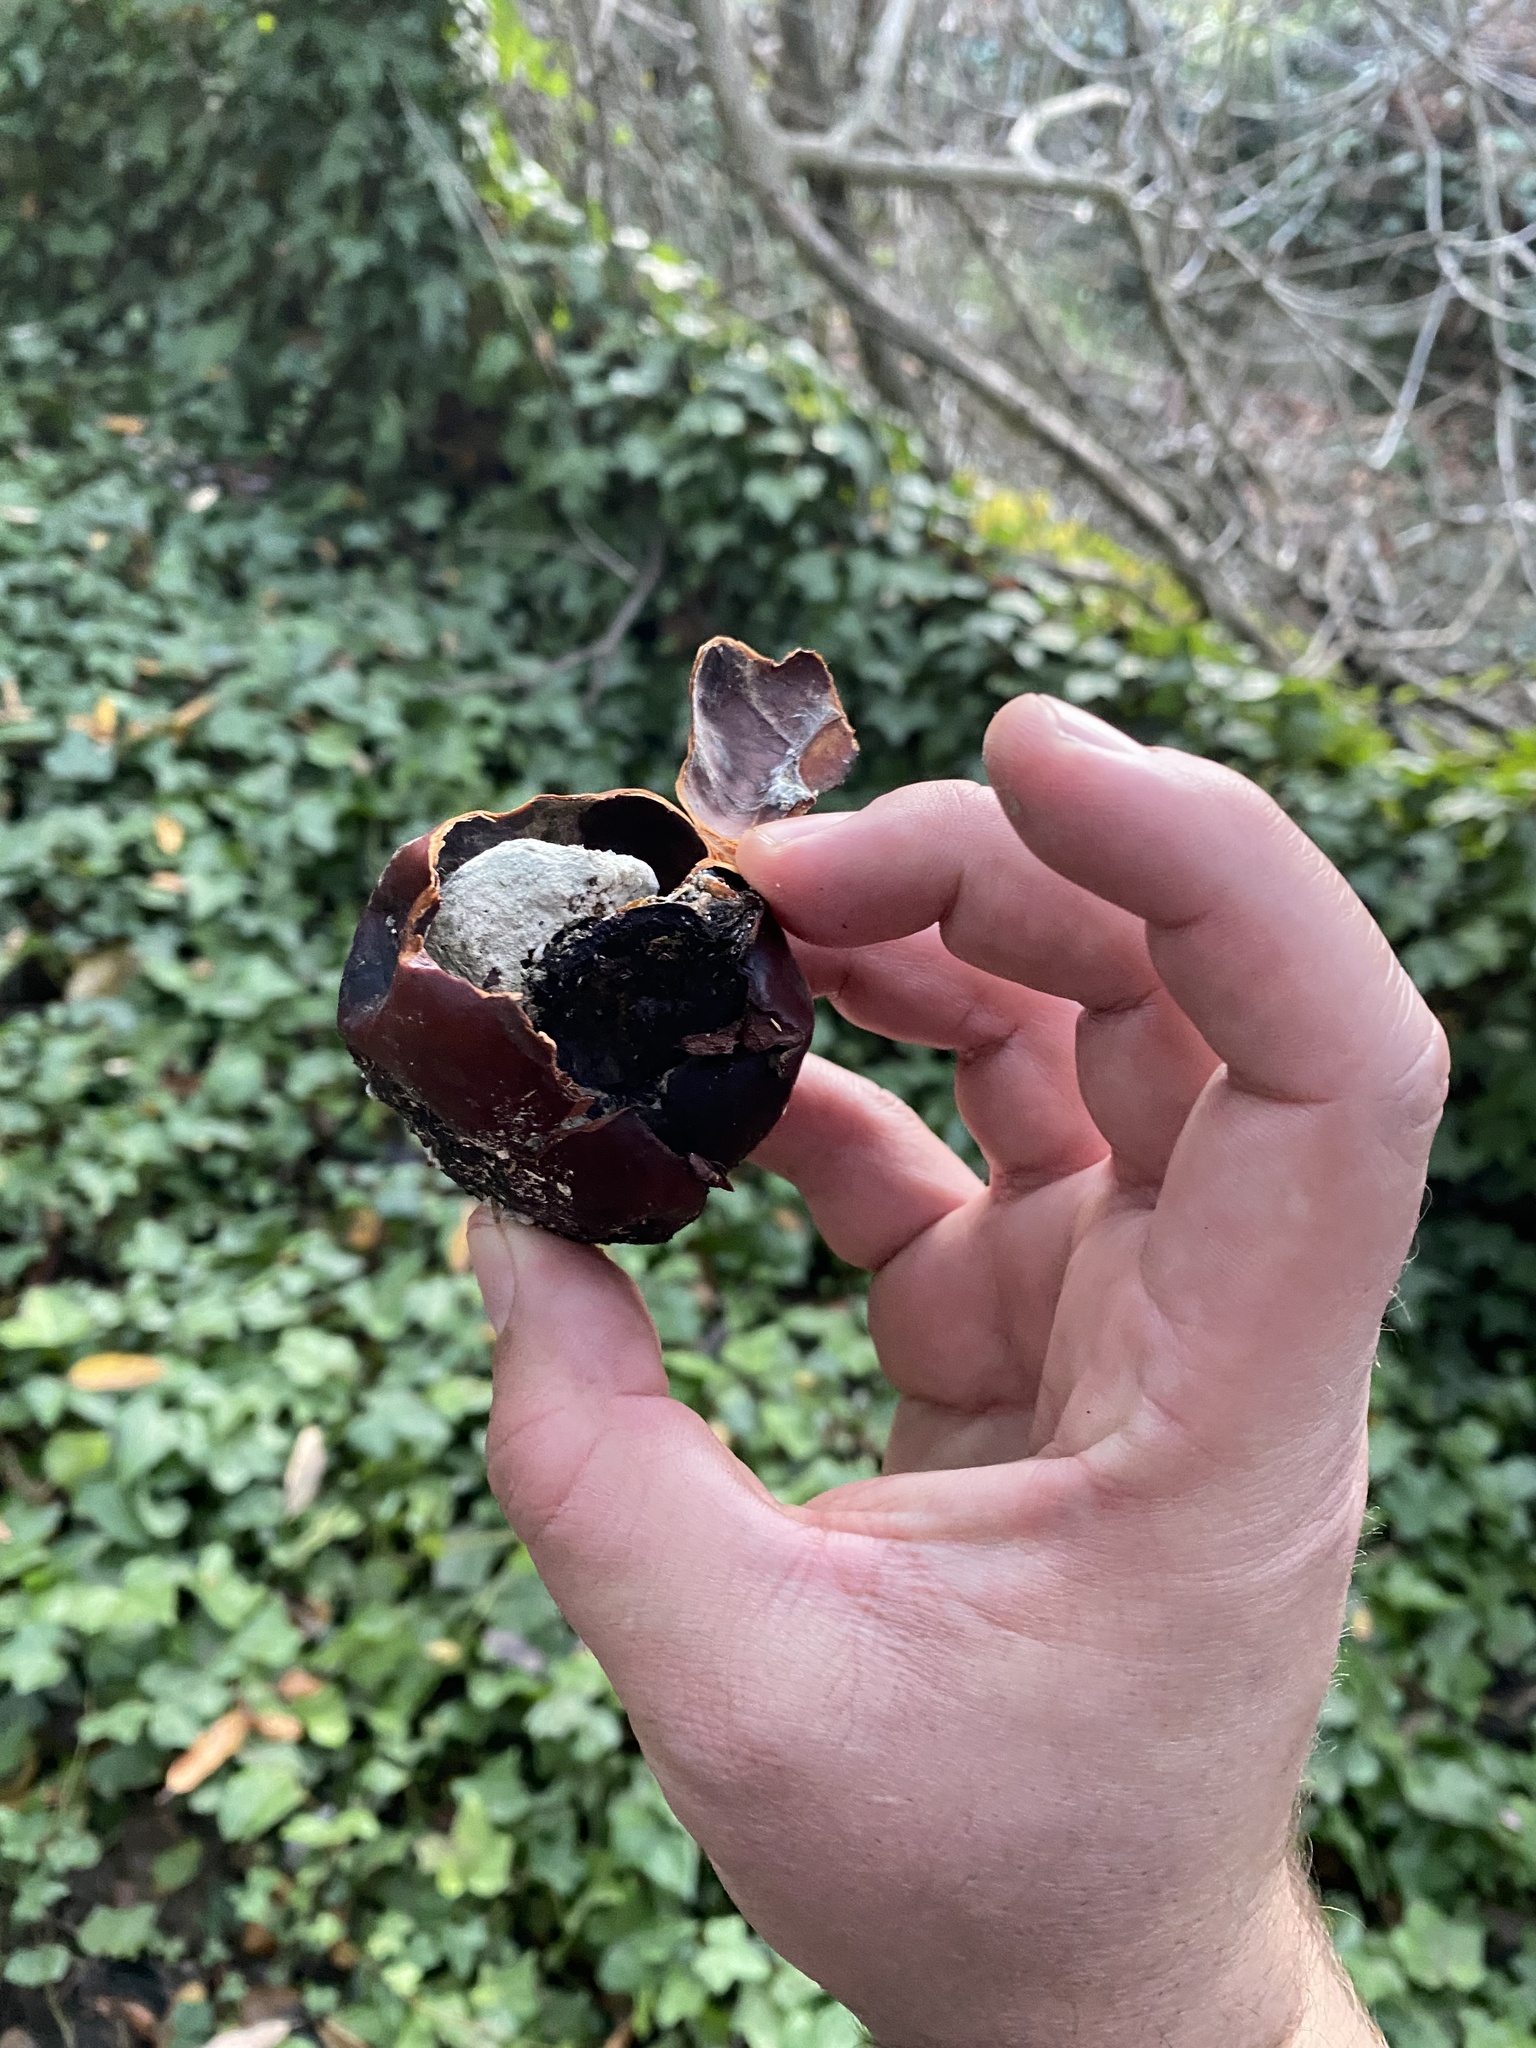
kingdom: Plantae
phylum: Tracheophyta
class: Magnoliopsida
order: Sapindales
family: Sapindaceae
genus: Aesculus
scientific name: Aesculus californica
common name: California buckeye
